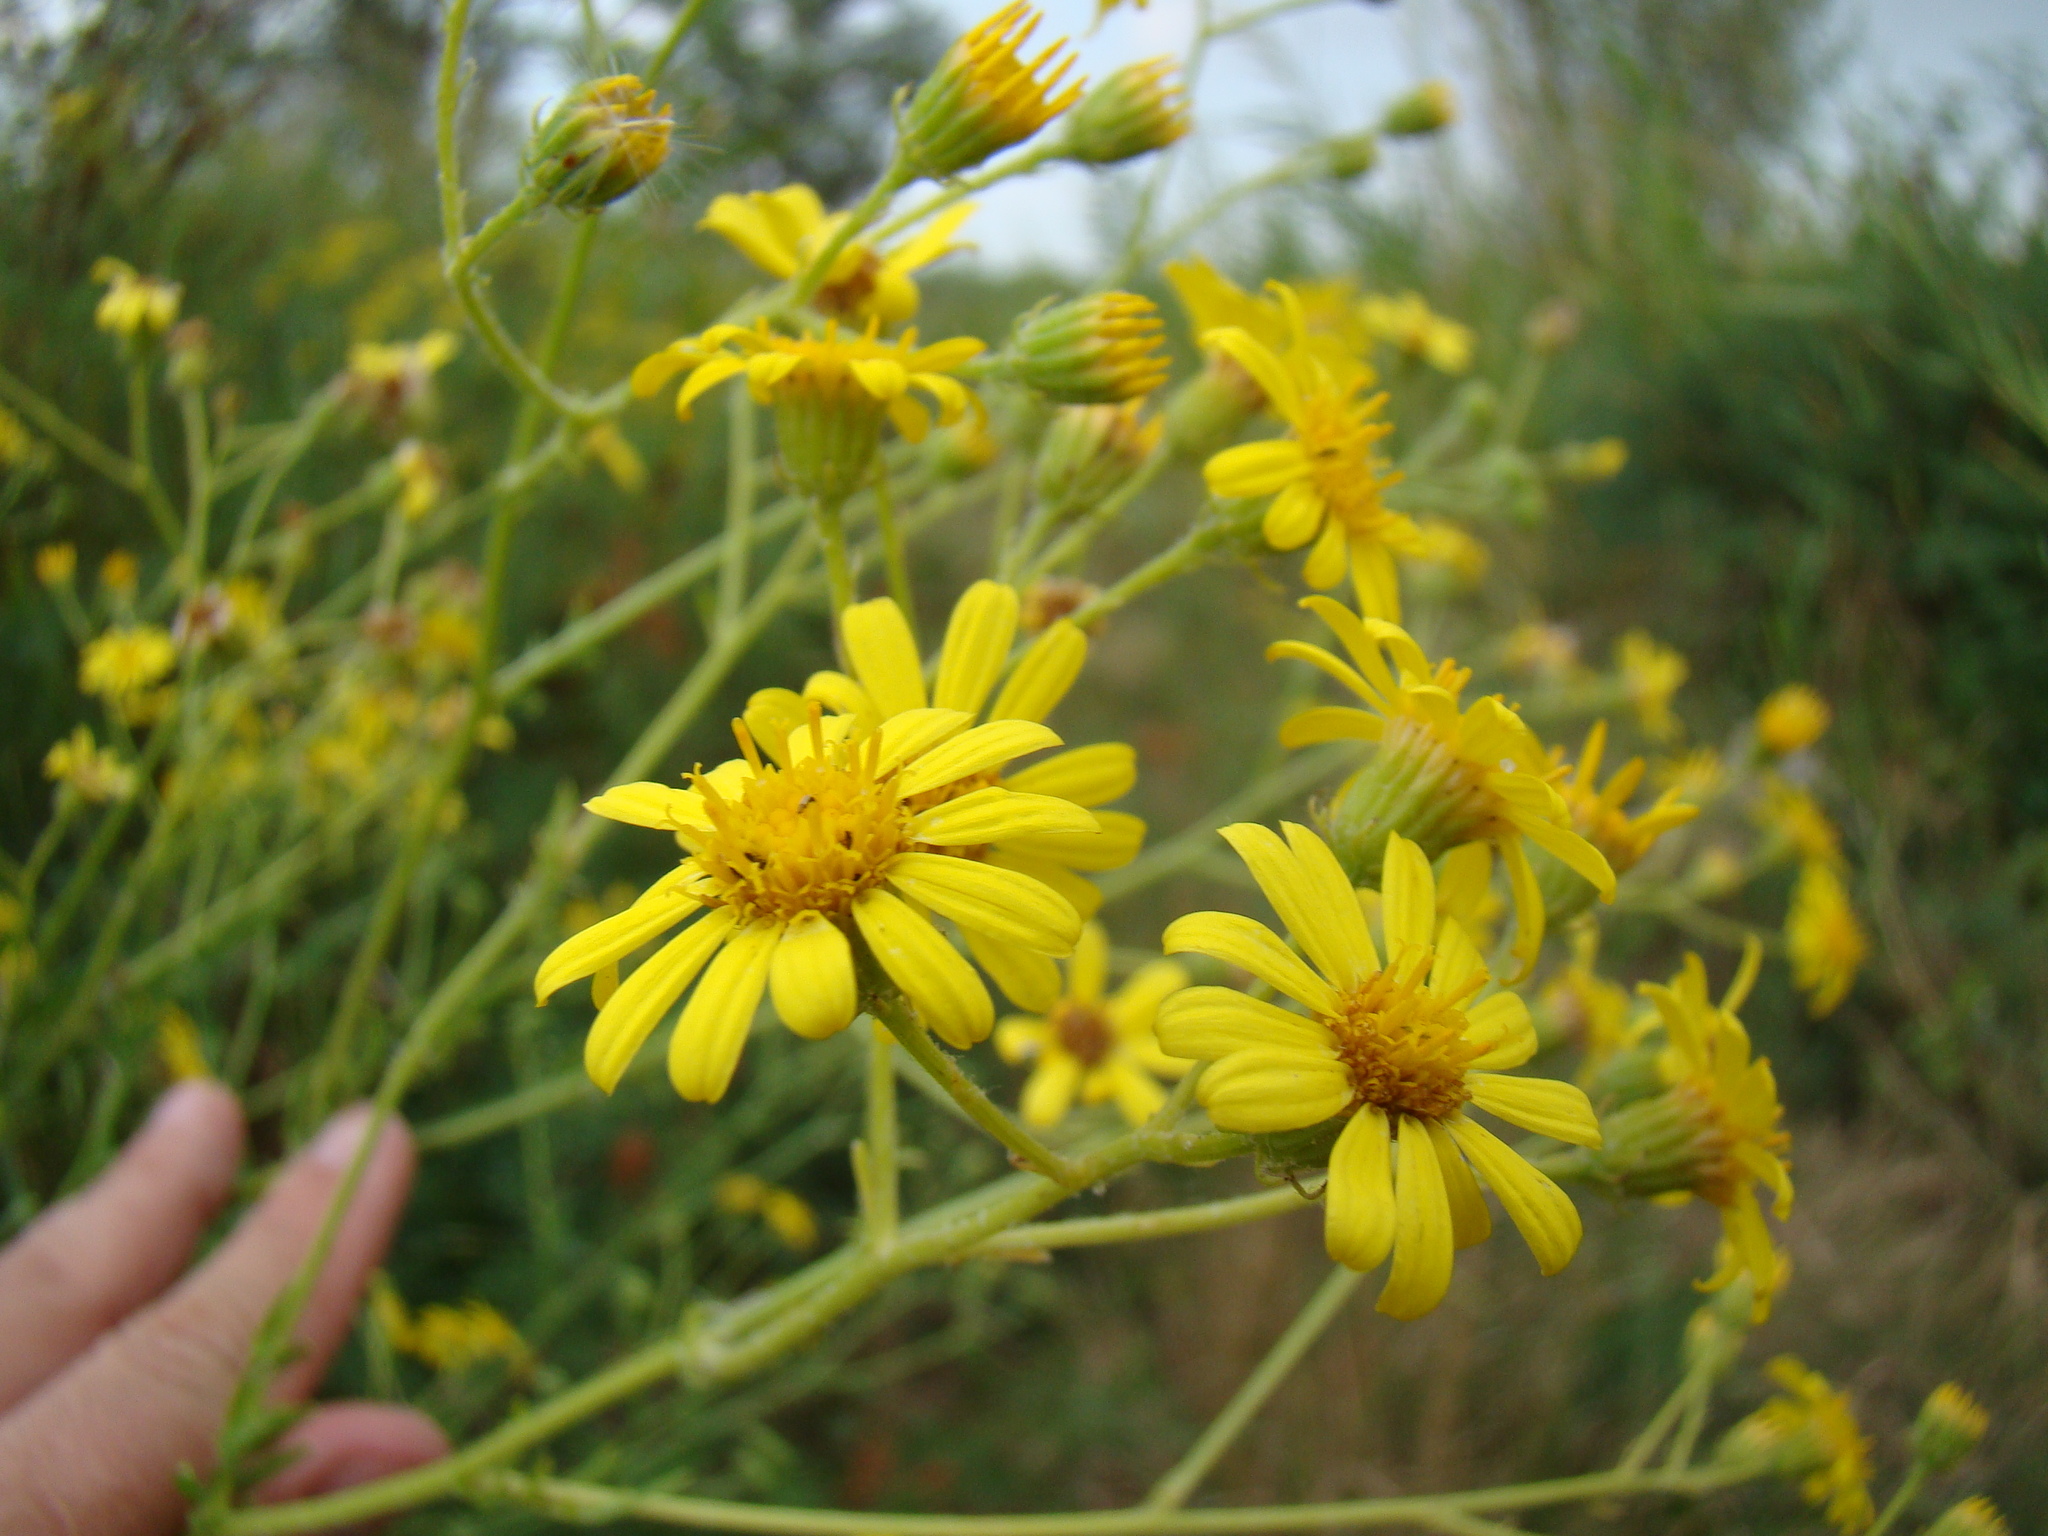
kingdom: Plantae
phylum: Tracheophyta
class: Magnoliopsida
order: Asterales
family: Asteraceae
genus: Jacobaea
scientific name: Jacobaea erucifolia
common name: Hoary ragwort
